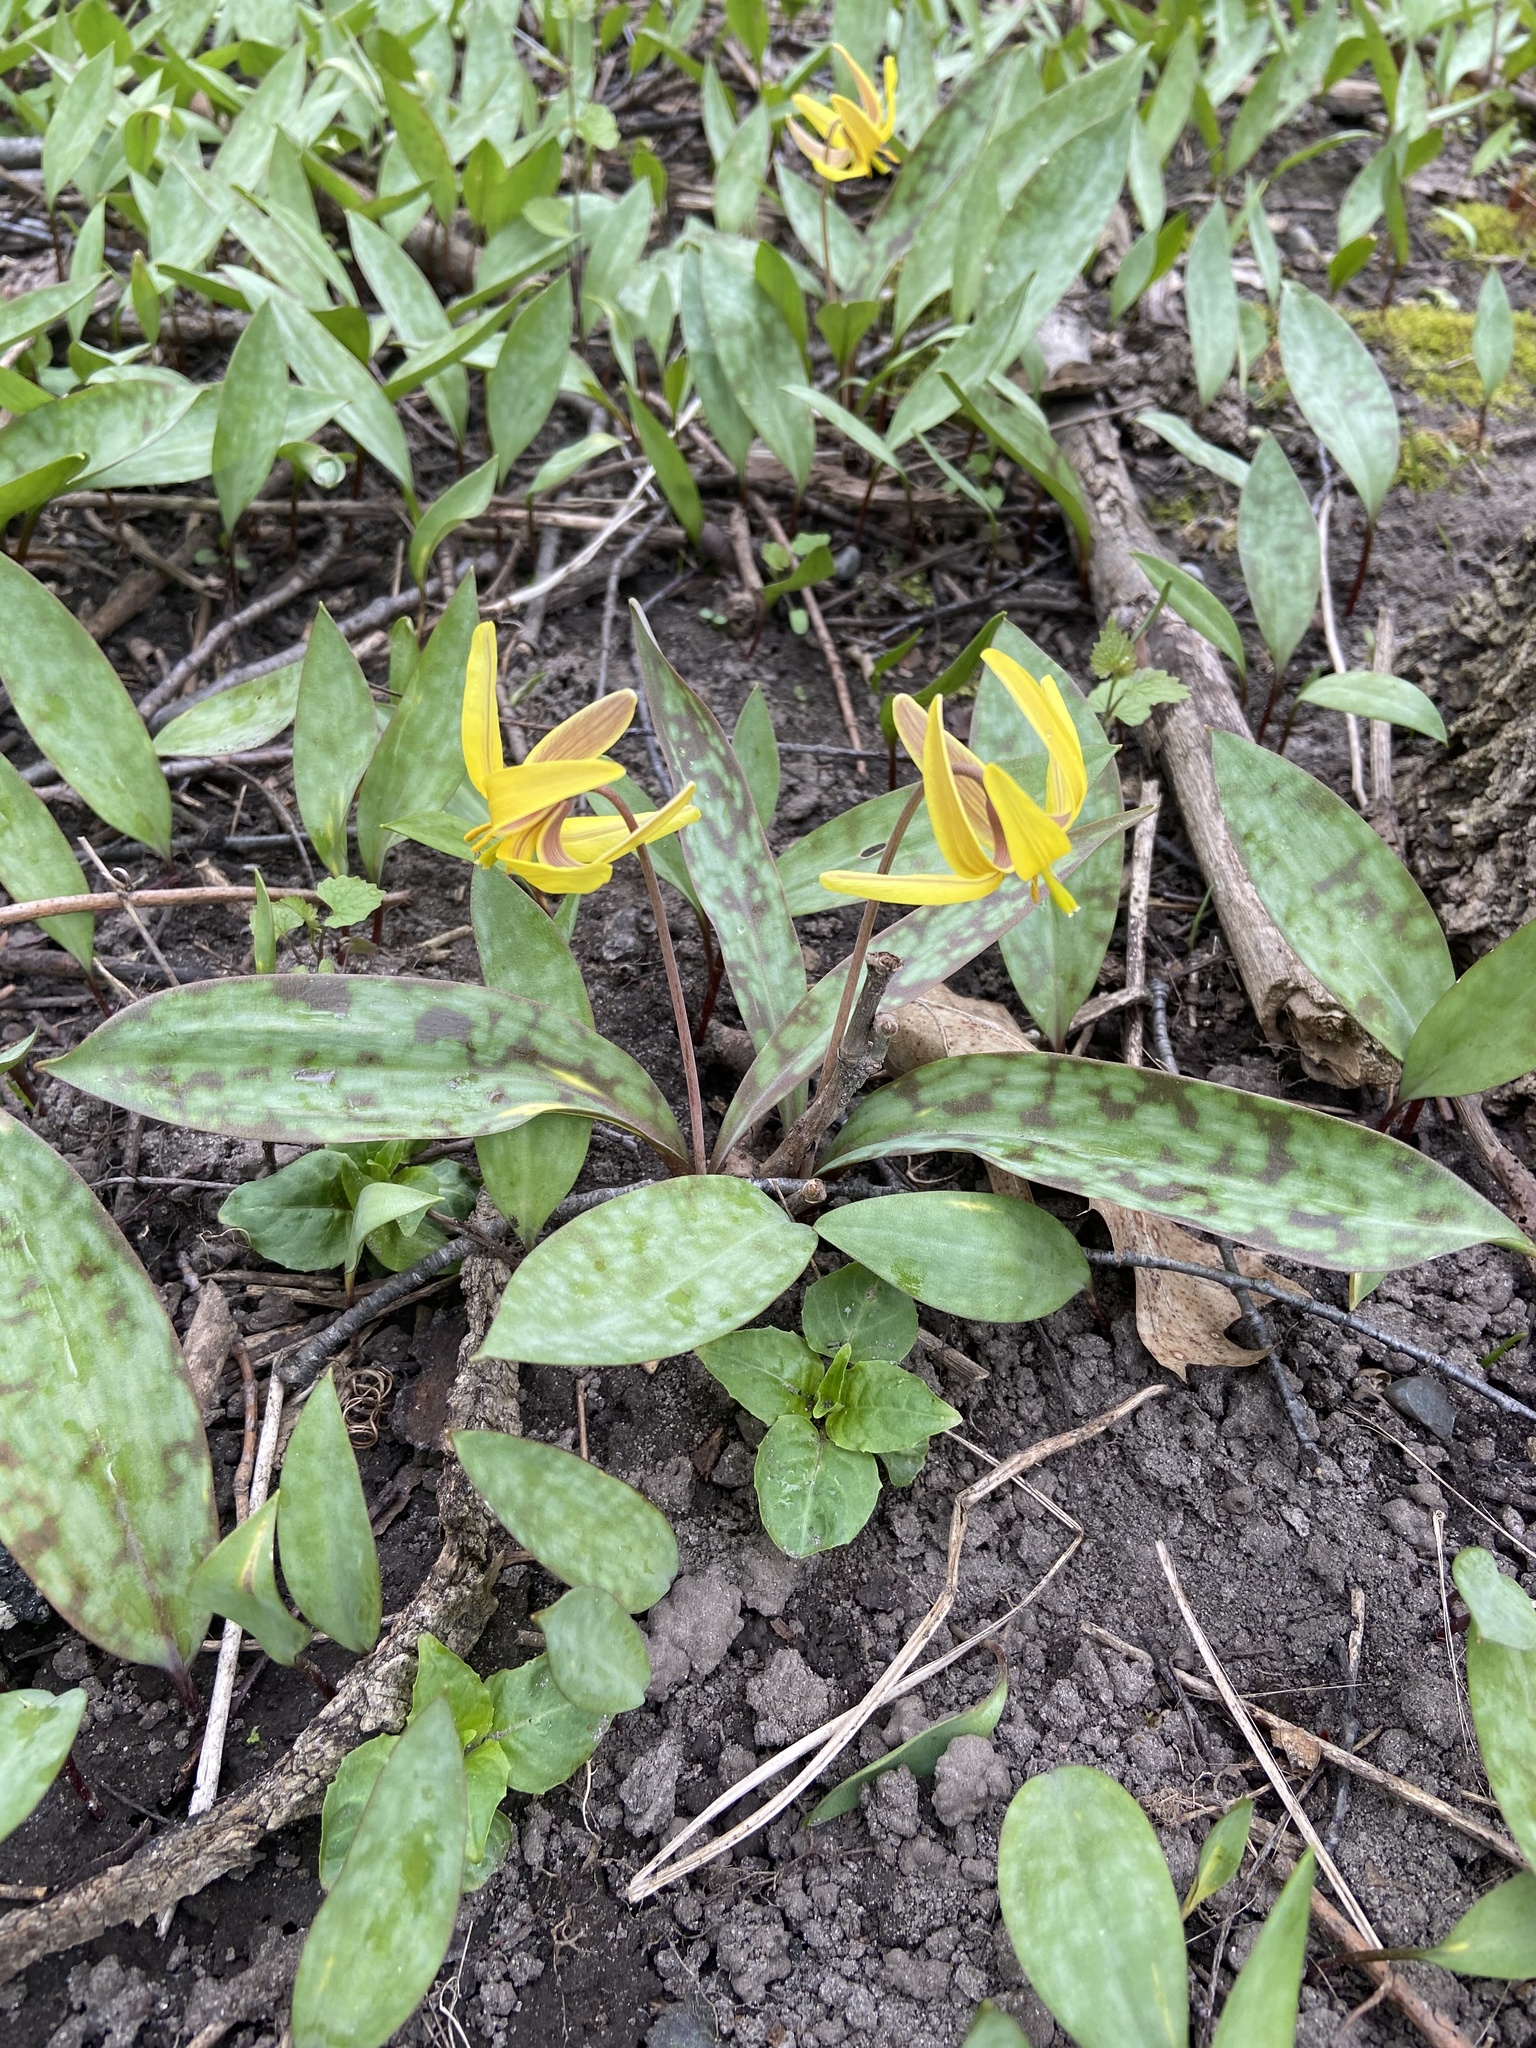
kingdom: Plantae
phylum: Tracheophyta
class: Liliopsida
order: Liliales
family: Liliaceae
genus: Erythronium
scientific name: Erythronium americanum
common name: Yellow adder's-tongue
